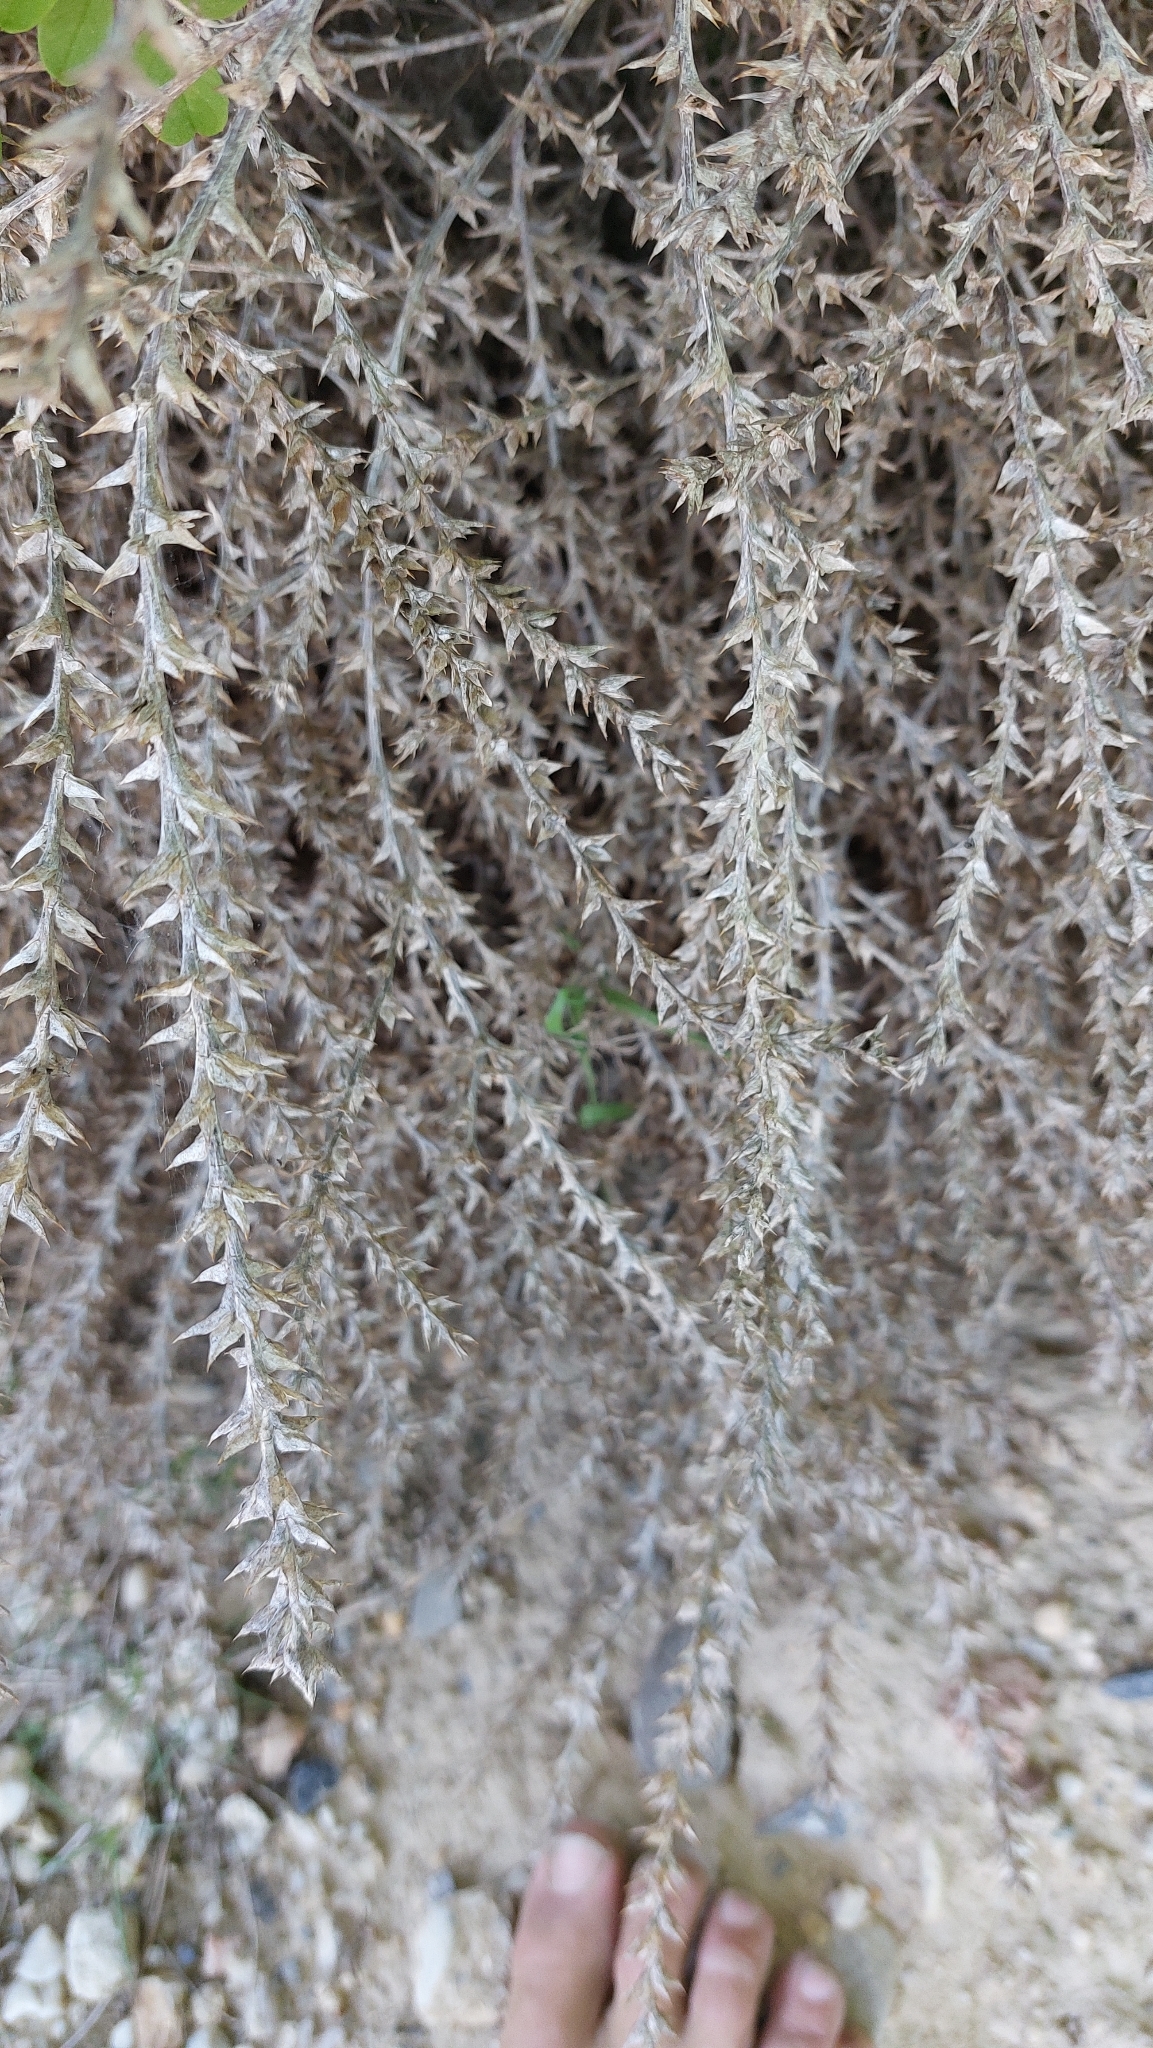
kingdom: Plantae
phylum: Tracheophyta
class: Magnoliopsida
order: Caryophyllales
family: Amaranthaceae
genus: Salsola
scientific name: Salsola tragus
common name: Prickly russian thistle
